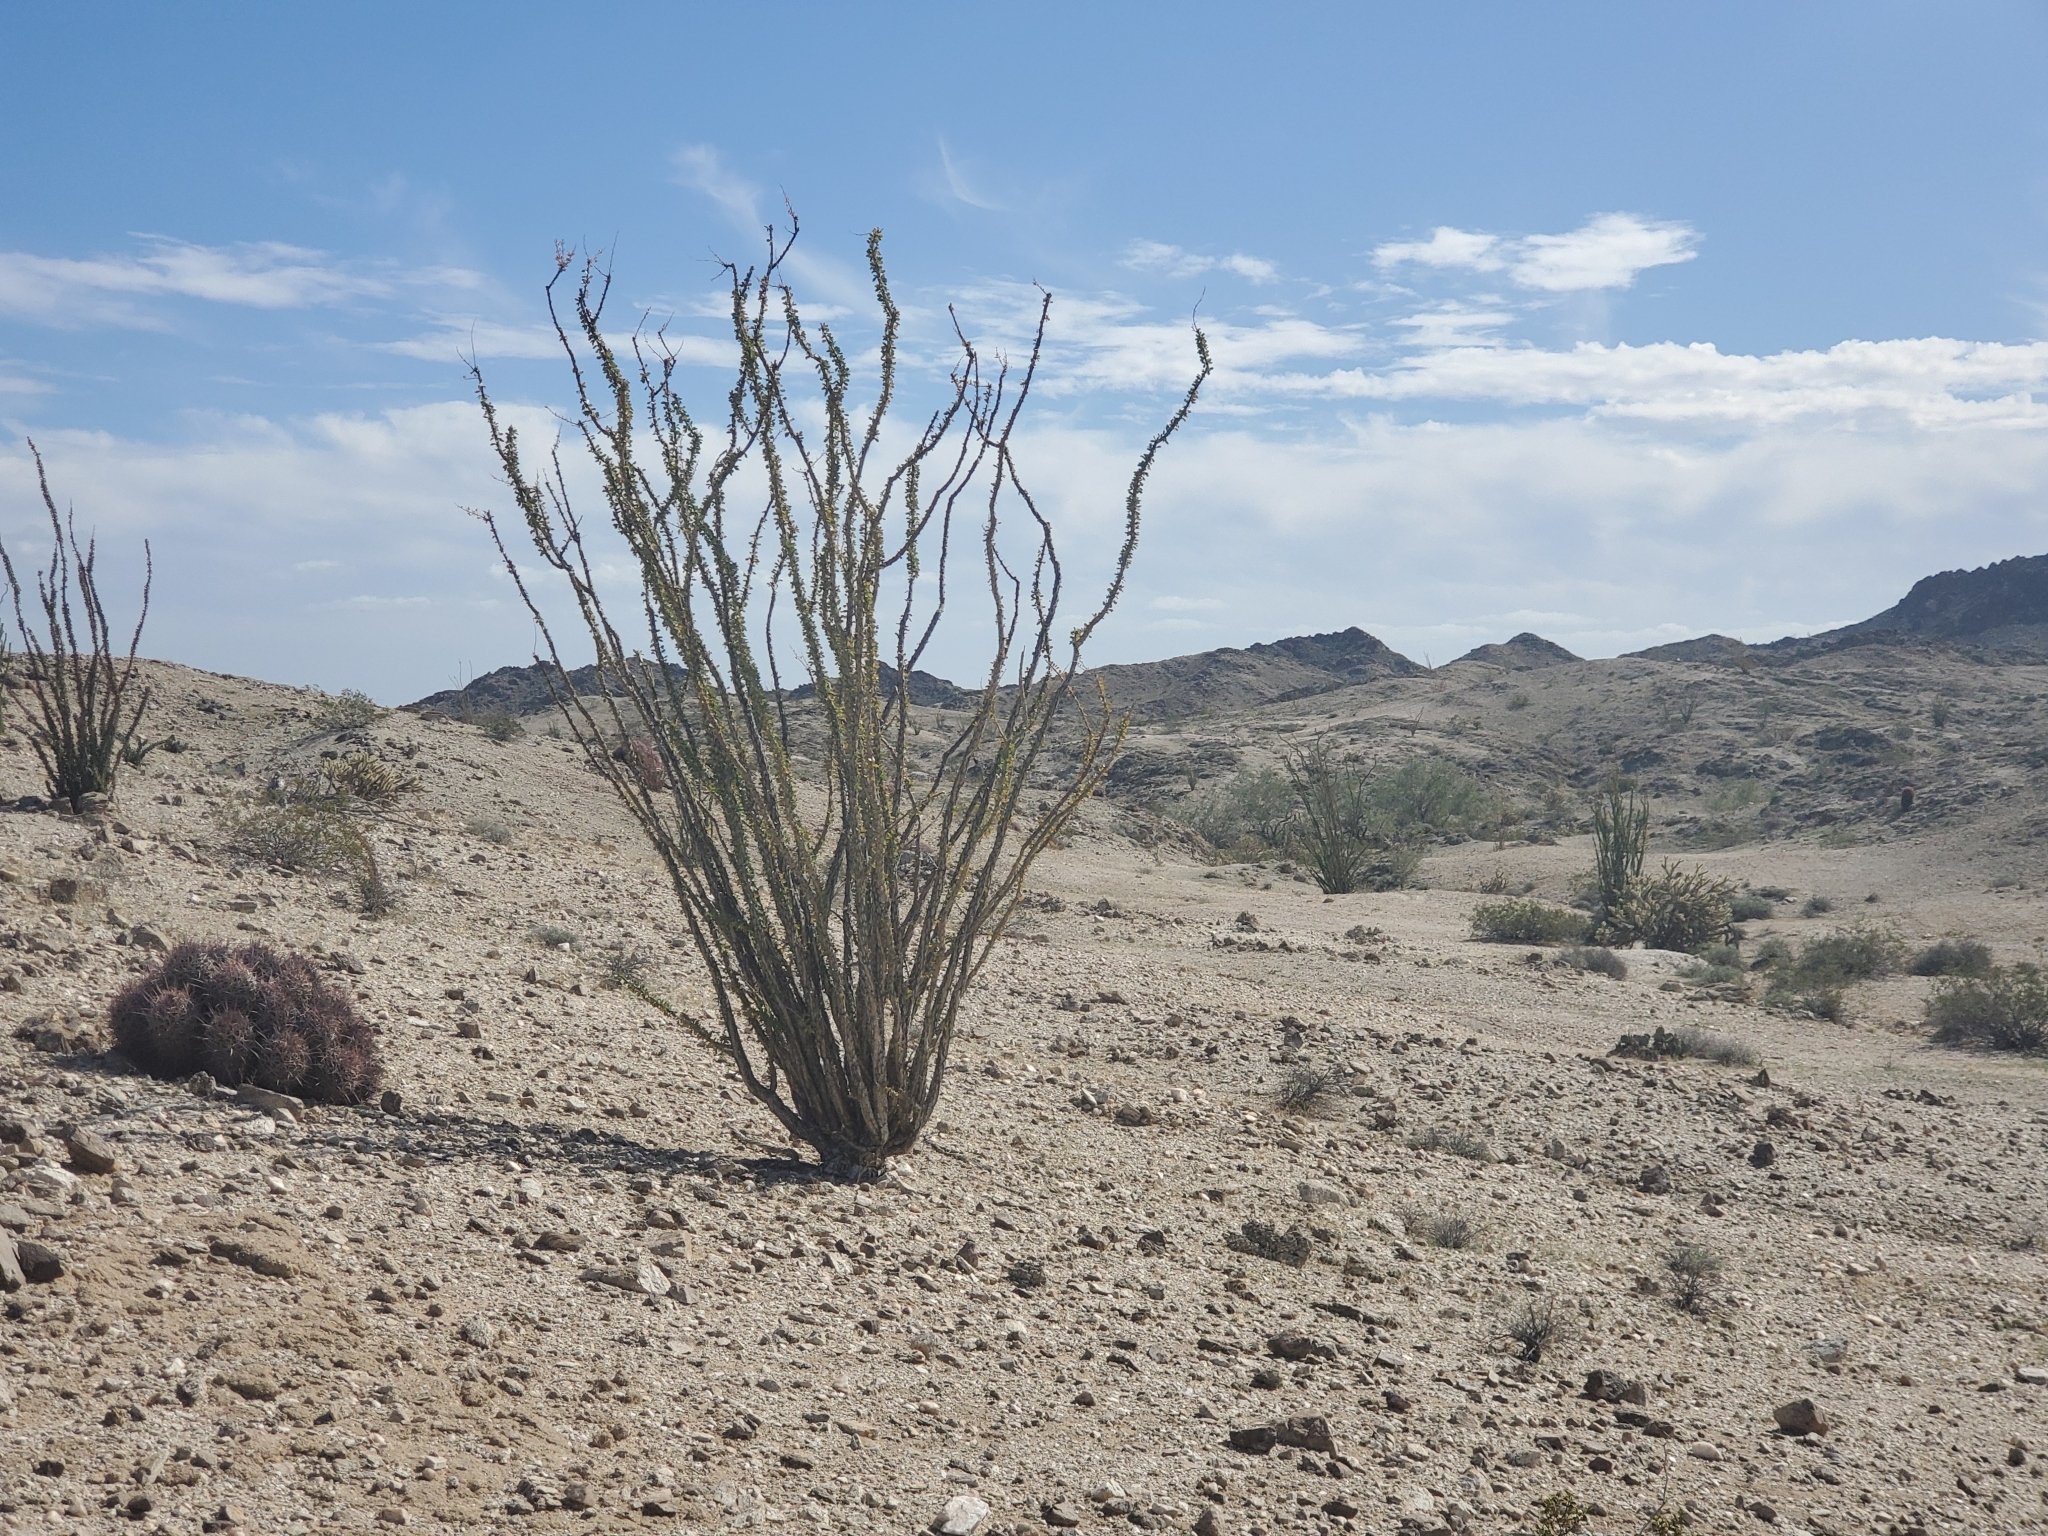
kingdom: Plantae
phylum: Tracheophyta
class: Magnoliopsida
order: Ericales
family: Fouquieriaceae
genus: Fouquieria
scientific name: Fouquieria splendens
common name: Vine-cactus
